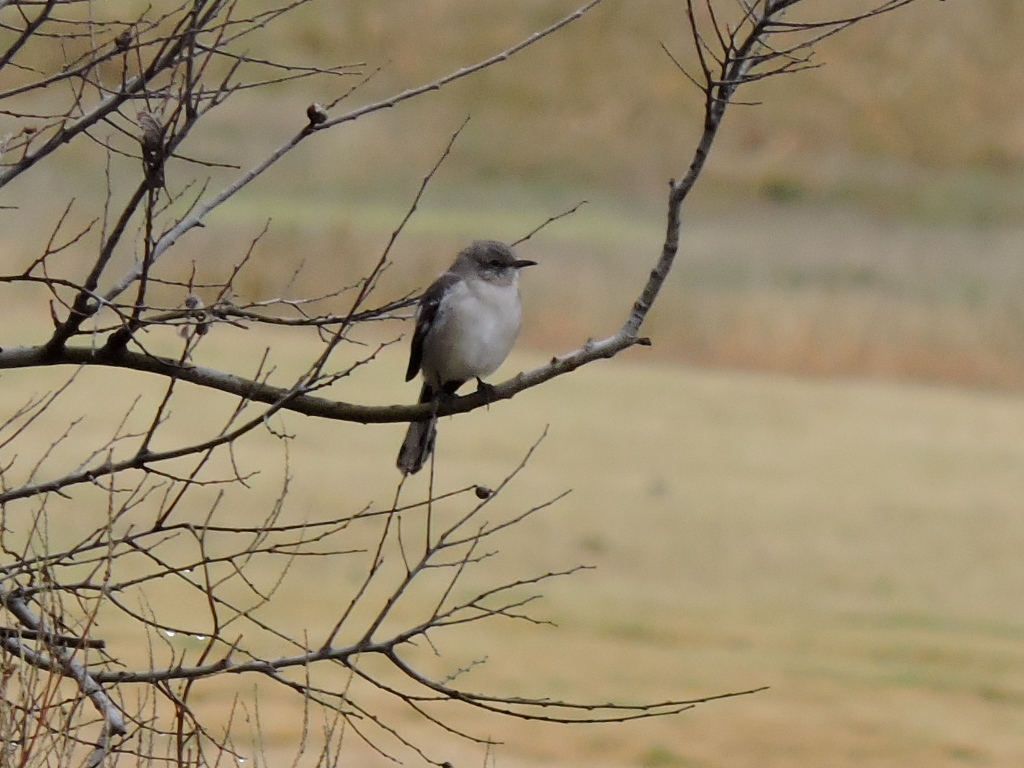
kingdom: Animalia
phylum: Chordata
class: Aves
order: Passeriformes
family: Mimidae
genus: Mimus
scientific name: Mimus polyglottos
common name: Northern mockingbird
